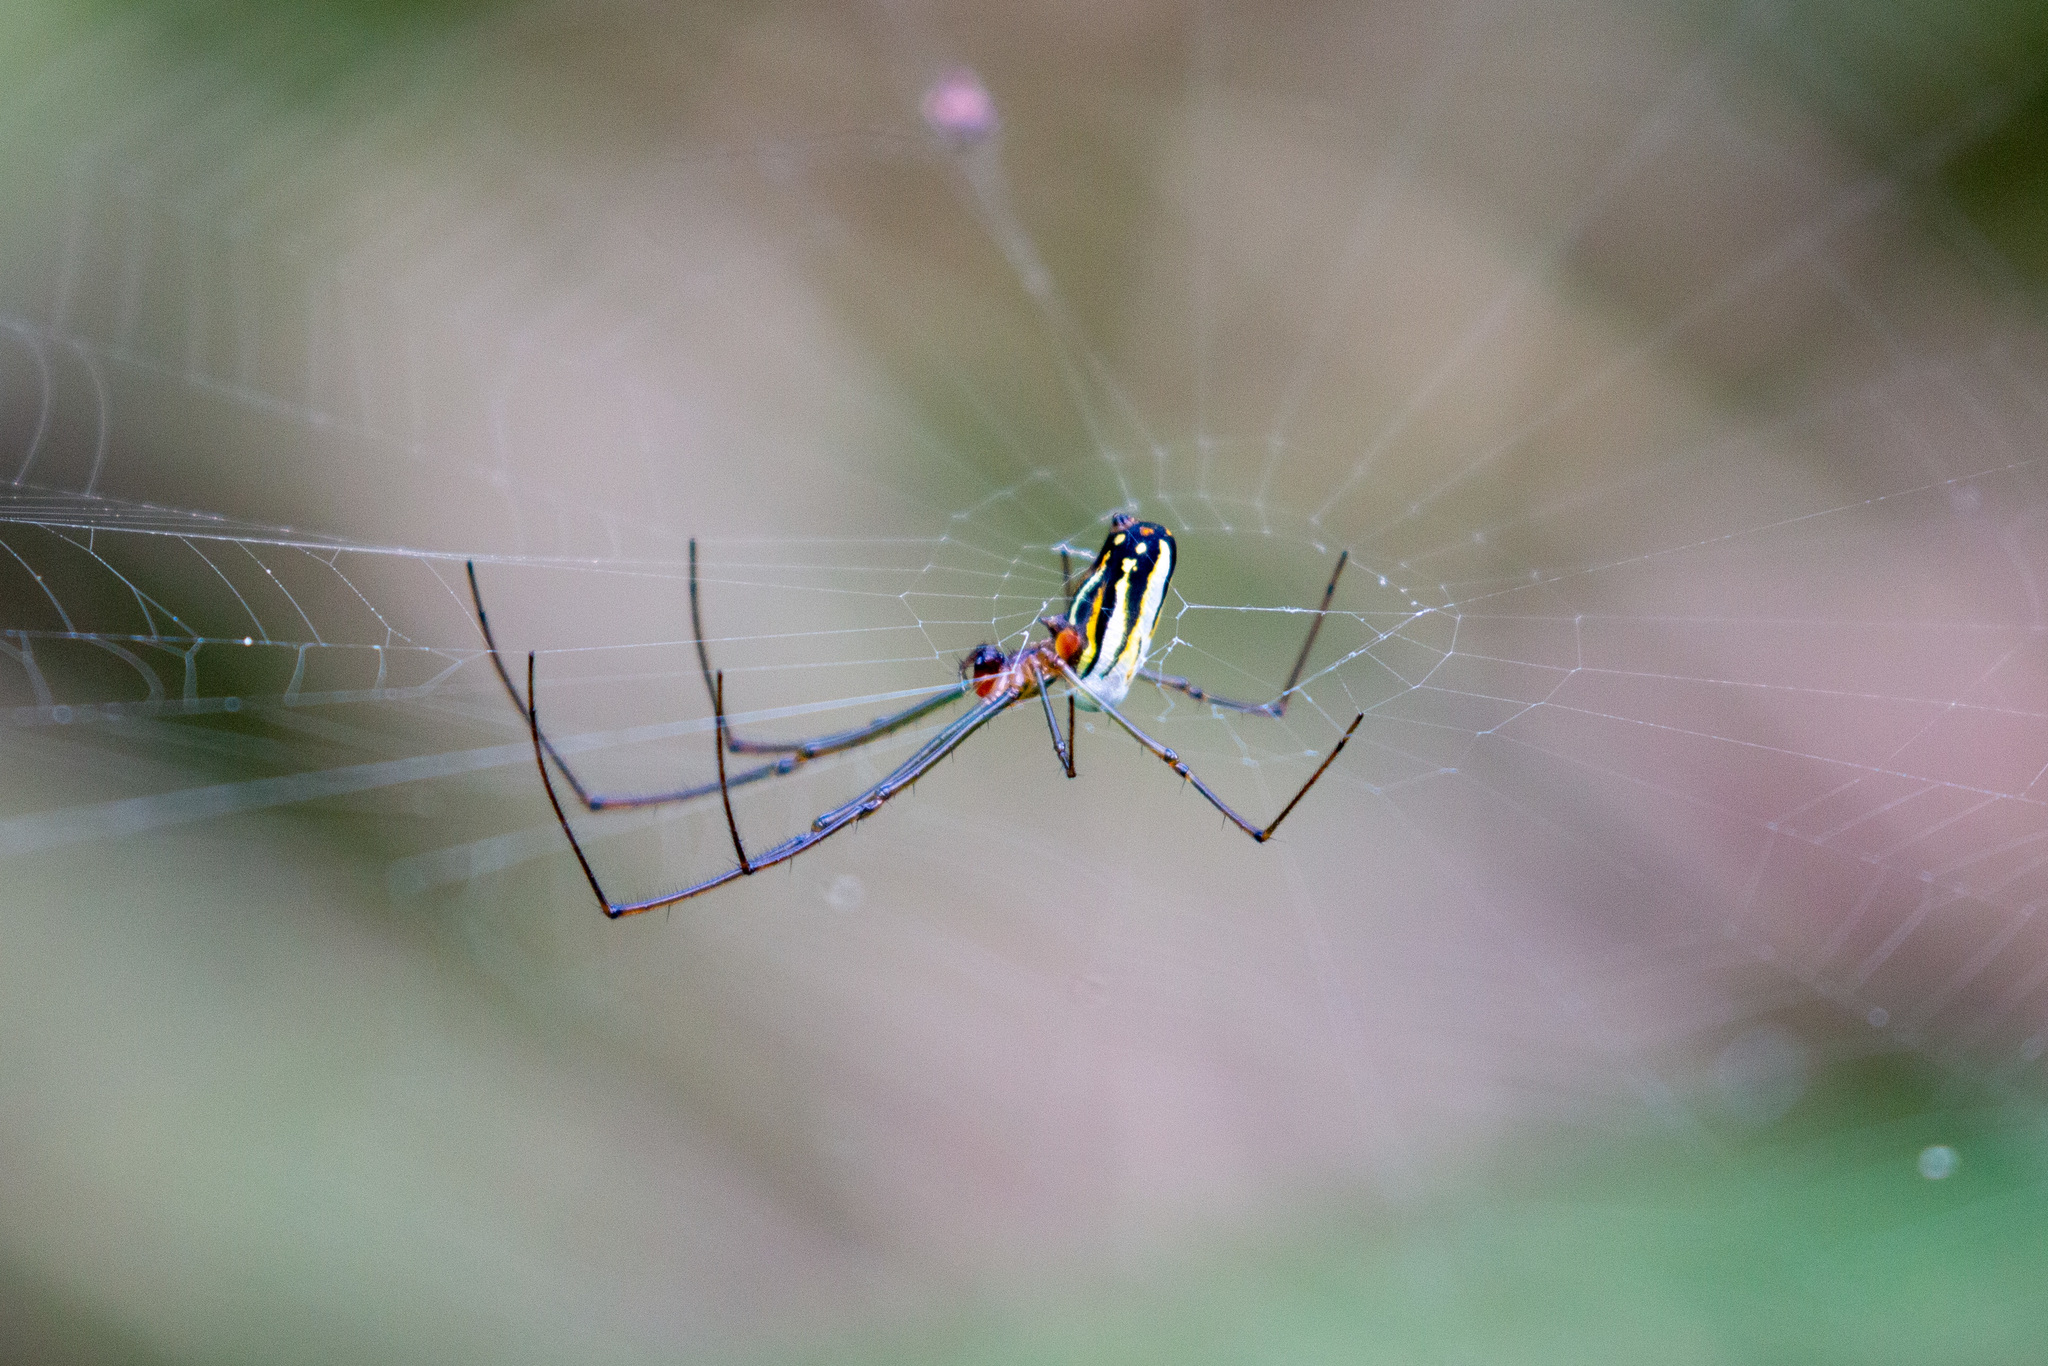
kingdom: Animalia
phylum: Arthropoda
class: Arachnida
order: Araneae
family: Tetragnathidae
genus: Leucauge
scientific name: Leucauge argyra
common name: Longjawed orb weavers
